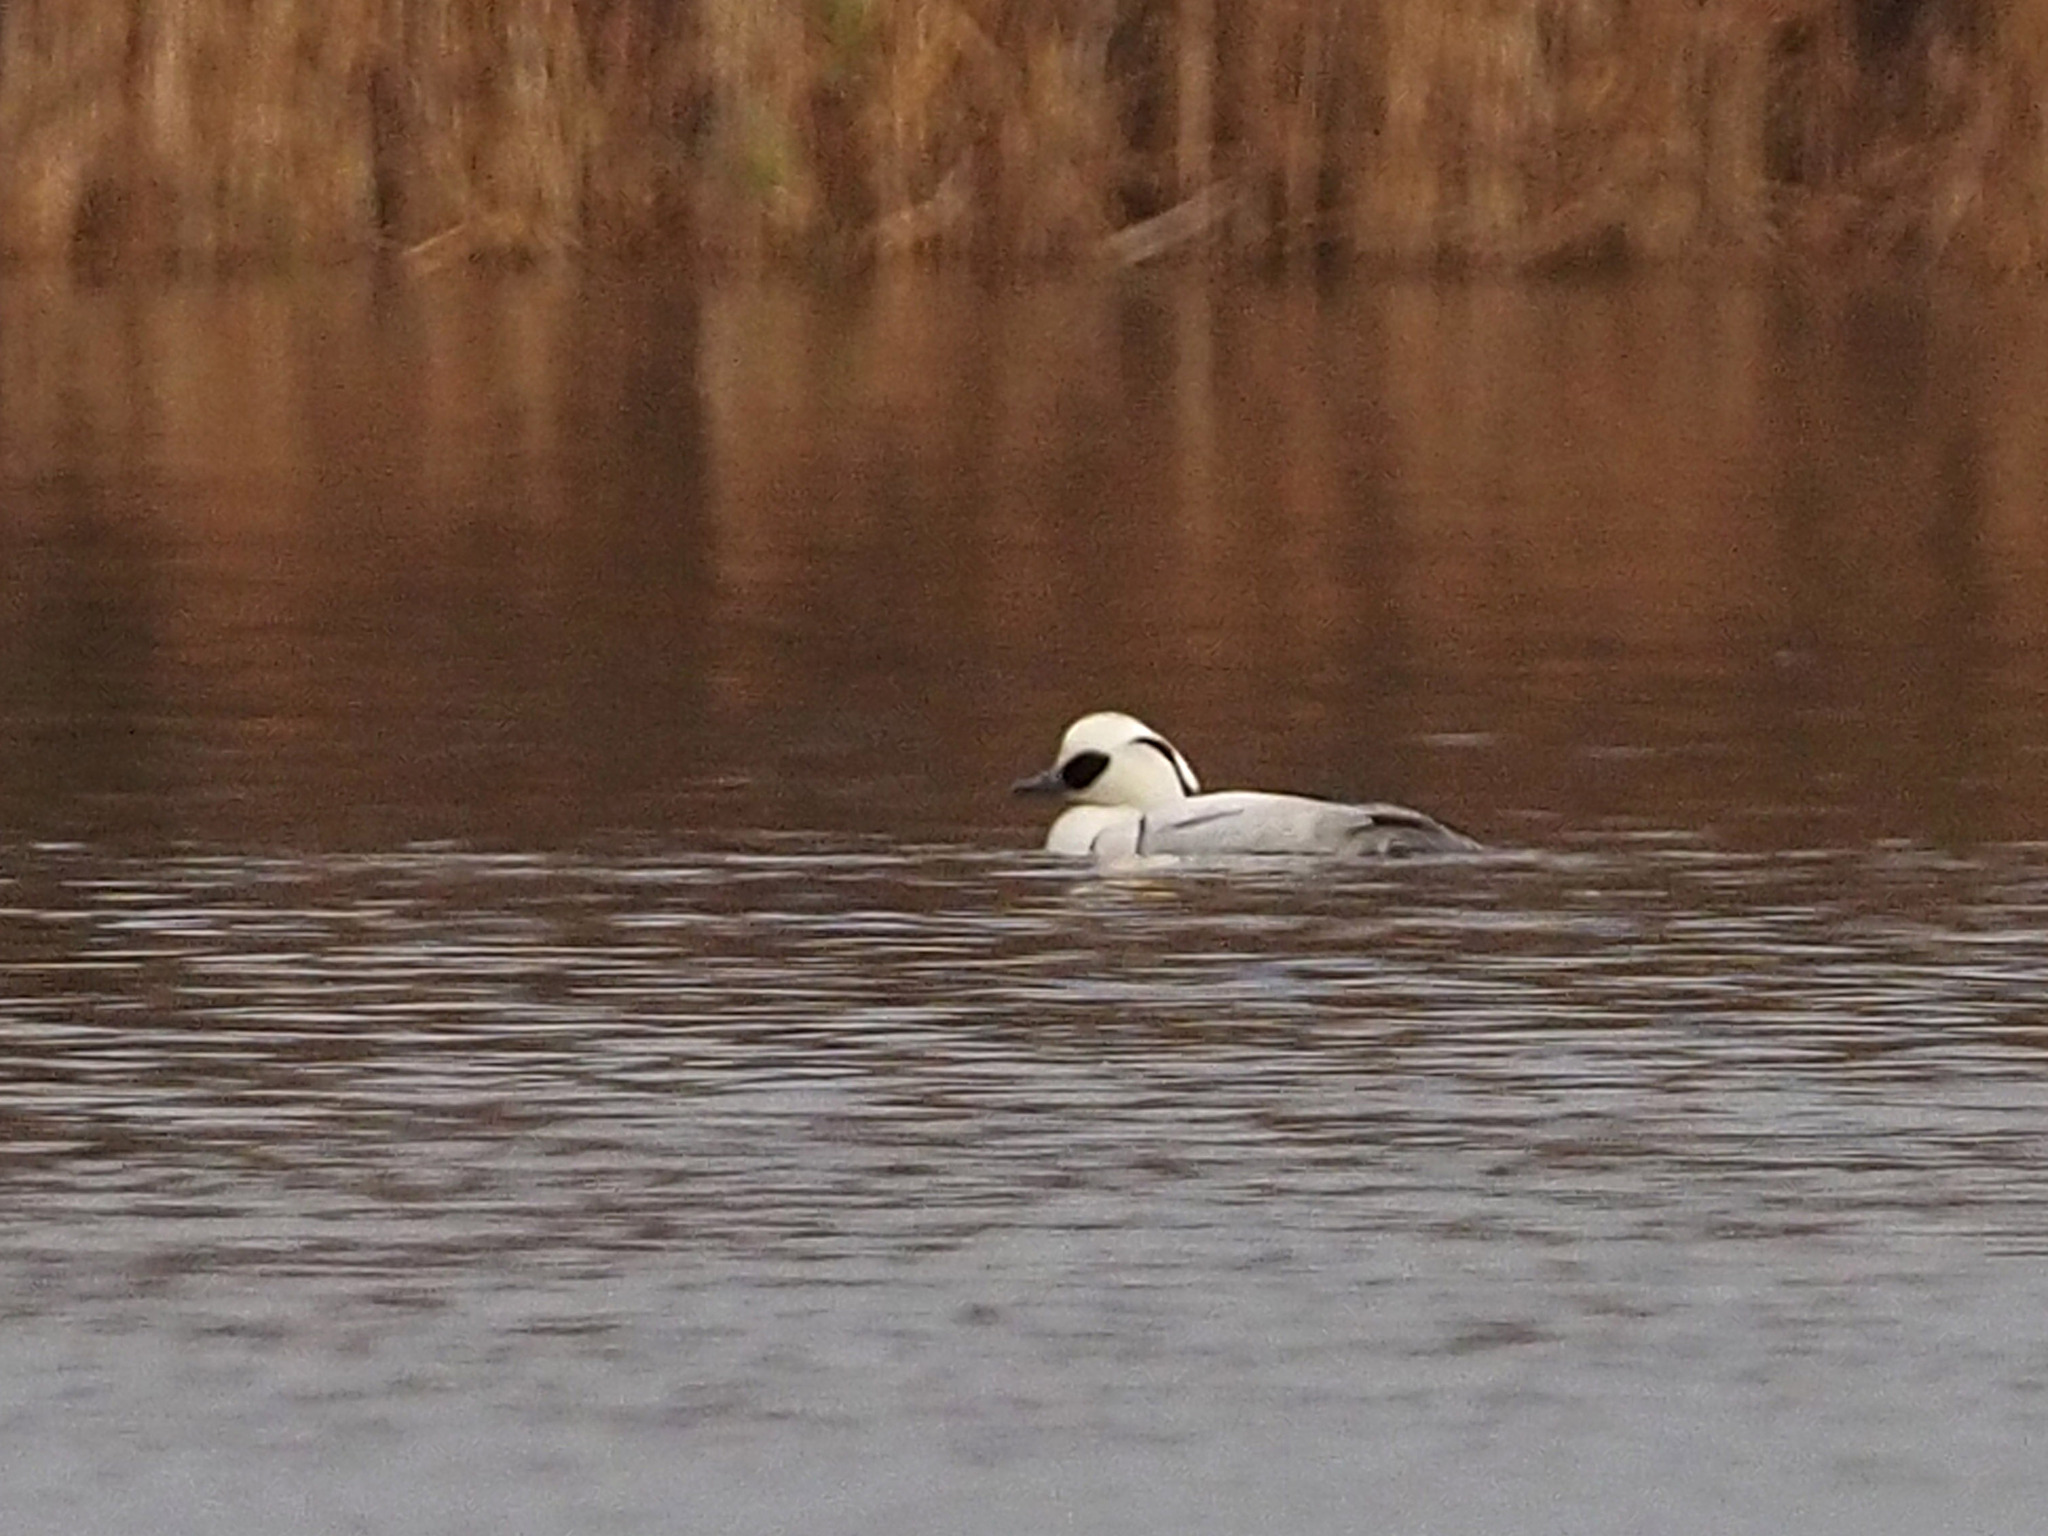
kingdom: Animalia
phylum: Chordata
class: Aves
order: Anseriformes
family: Anatidae
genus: Mergellus
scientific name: Mergellus albellus
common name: Smew
